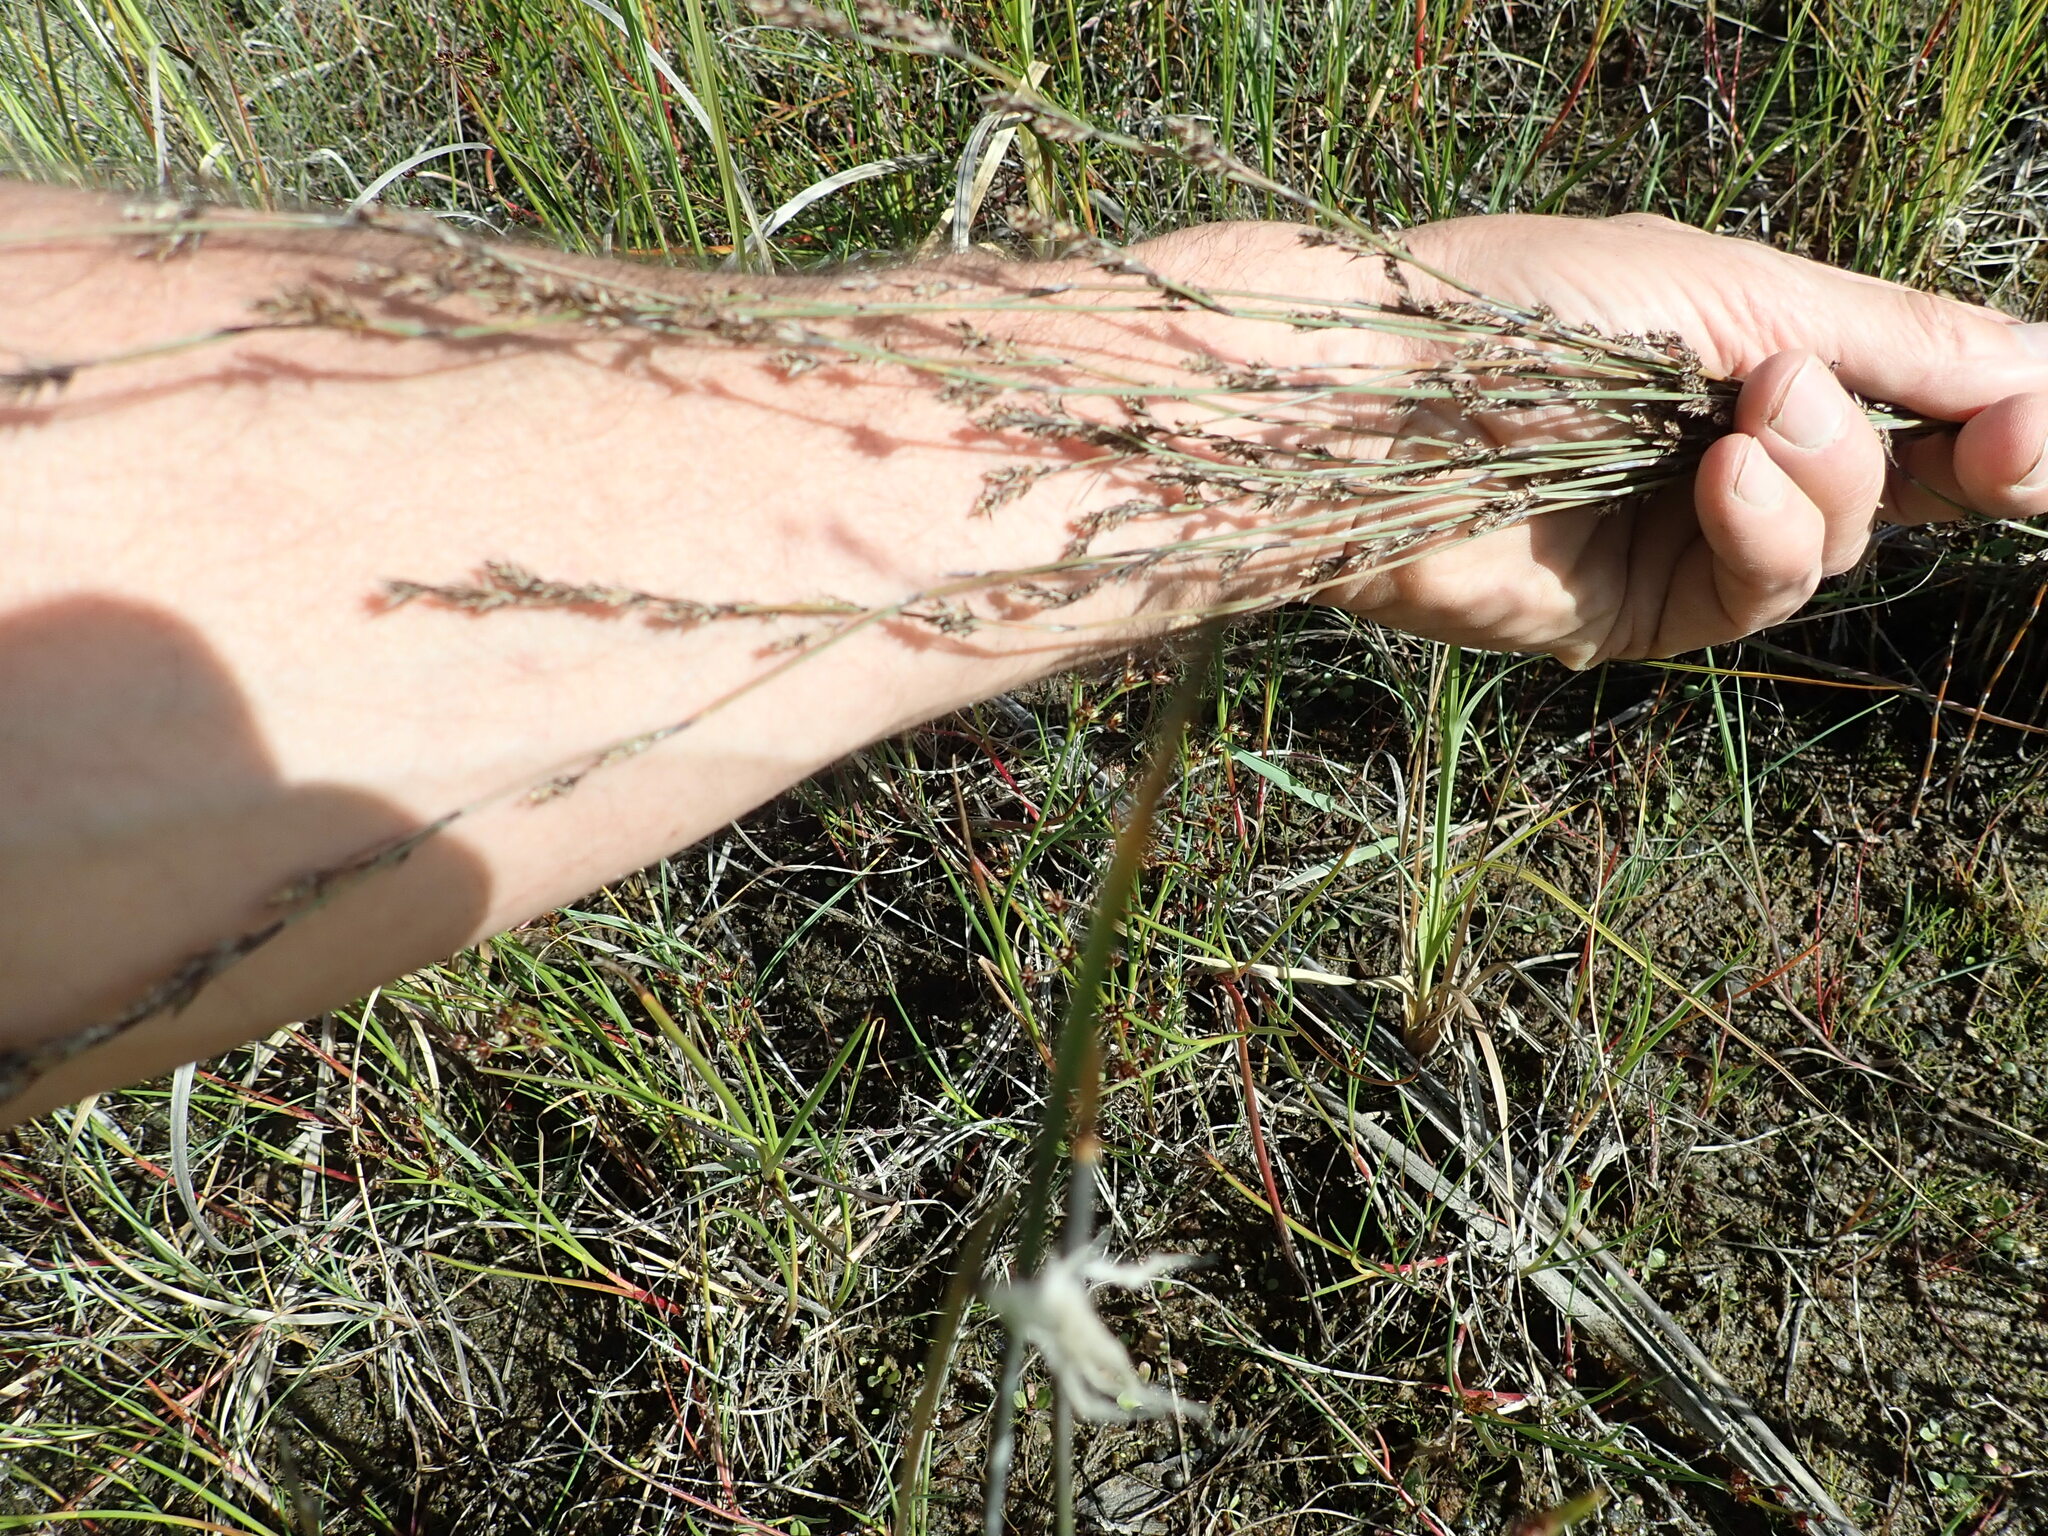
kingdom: Plantae
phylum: Tracheophyta
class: Liliopsida
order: Poales
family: Restionaceae
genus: Apodasmia
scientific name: Apodasmia similis
